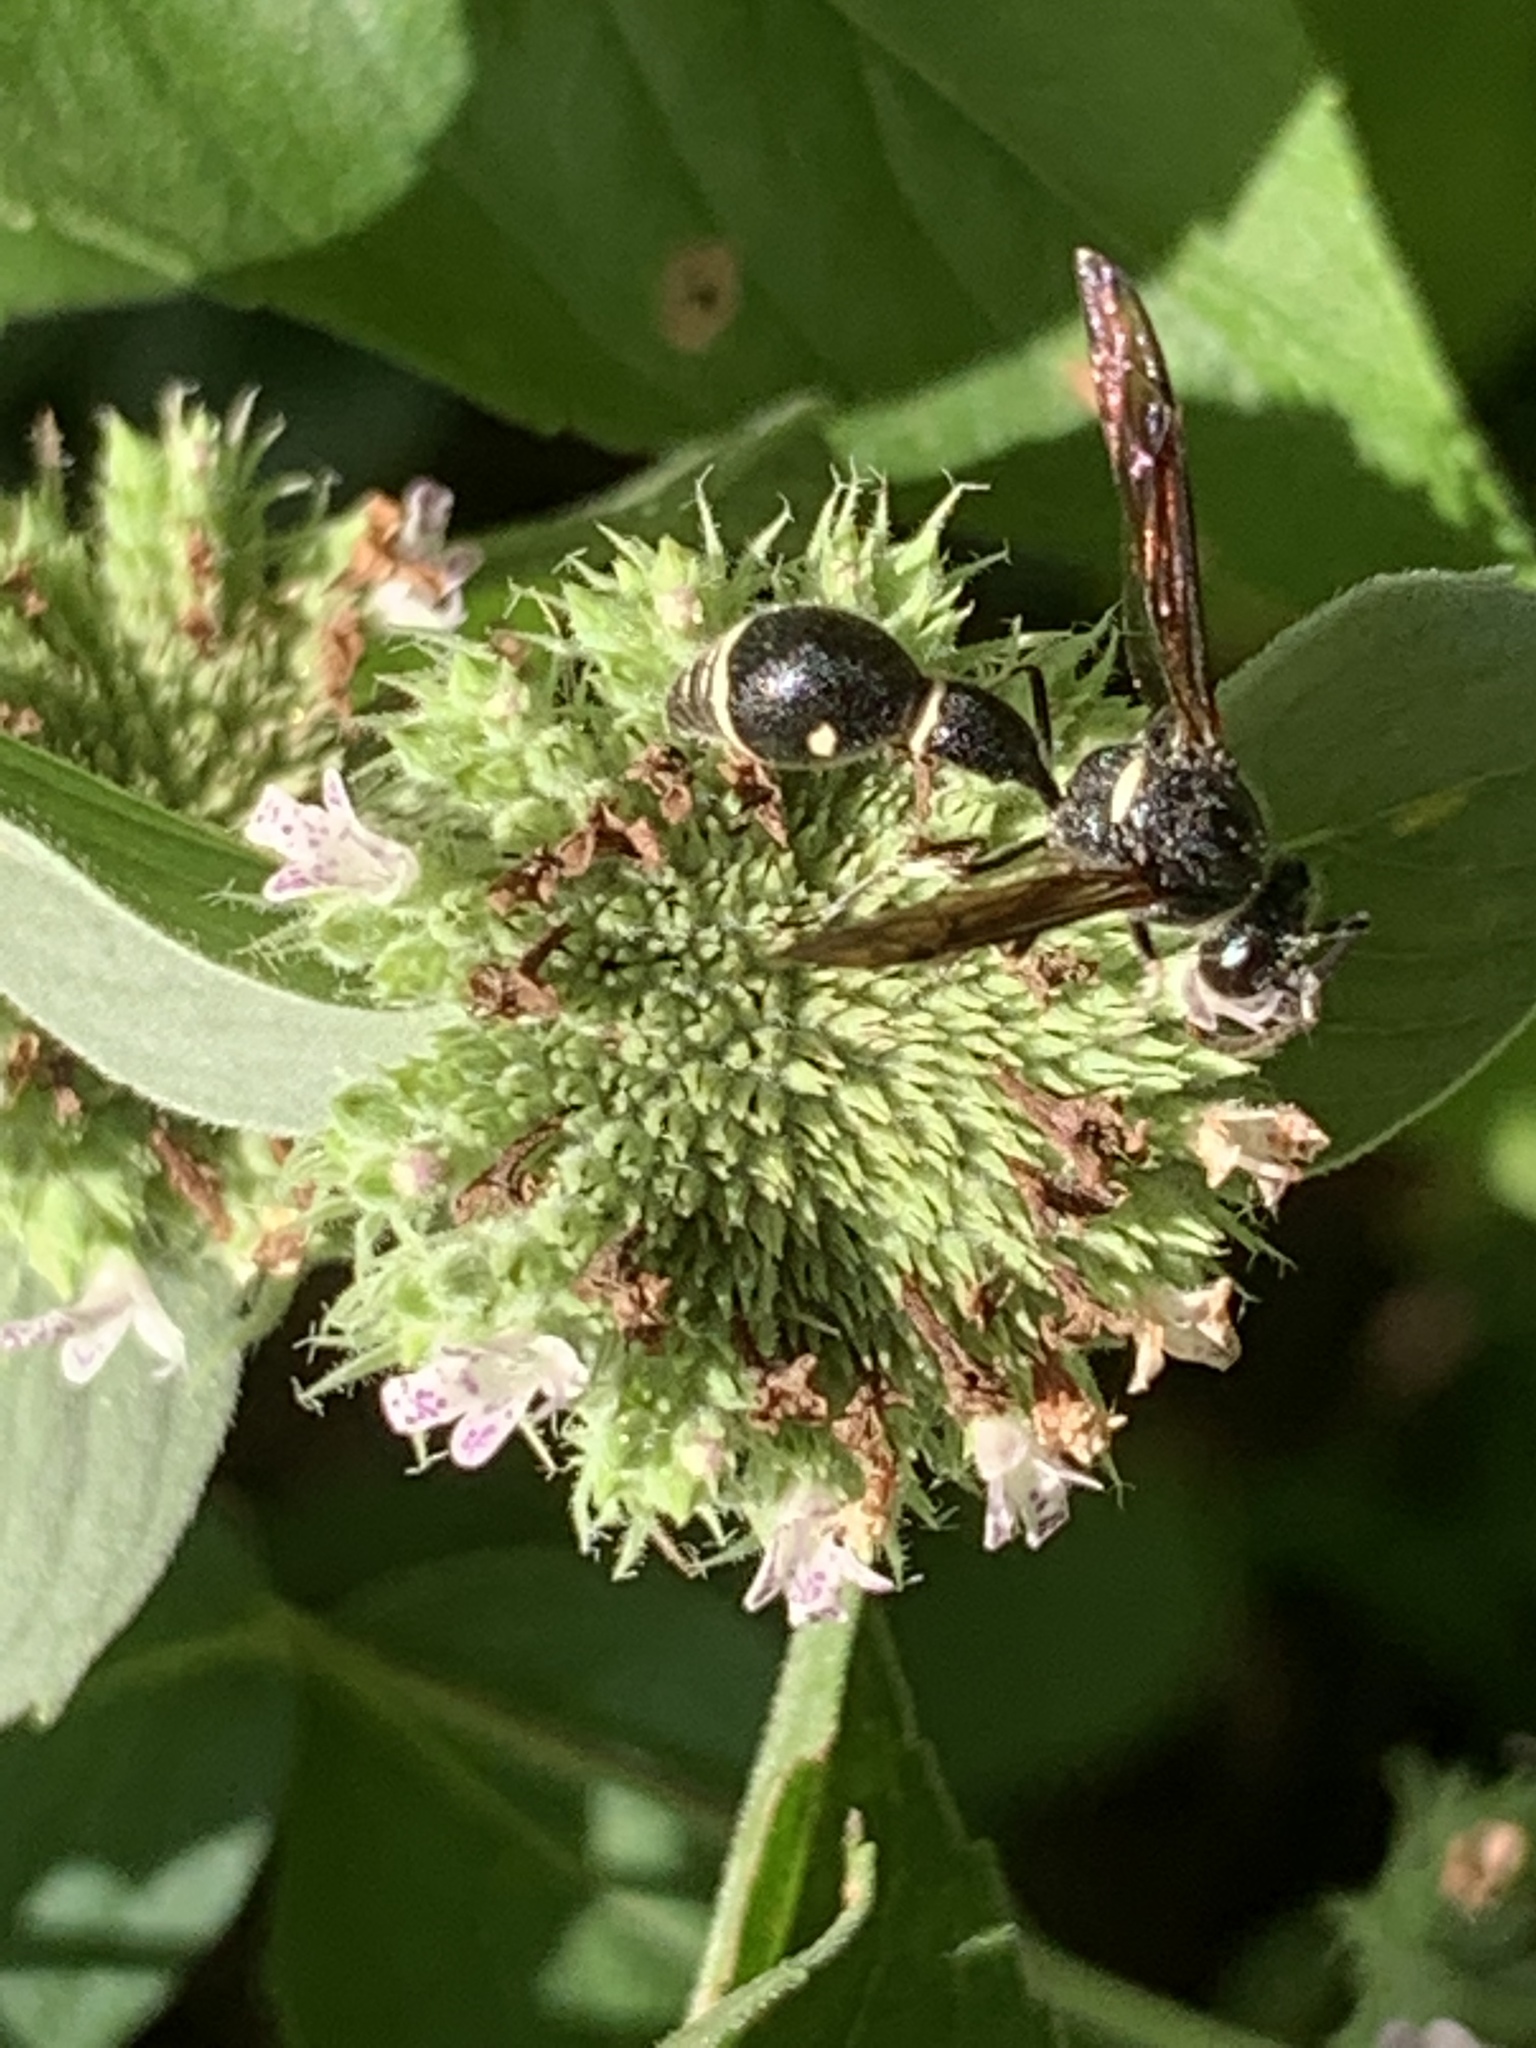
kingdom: Animalia
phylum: Arthropoda
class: Insecta
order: Hymenoptera
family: Vespidae
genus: Eumenes
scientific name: Eumenes fraternus
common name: Fraternal potter wasp
